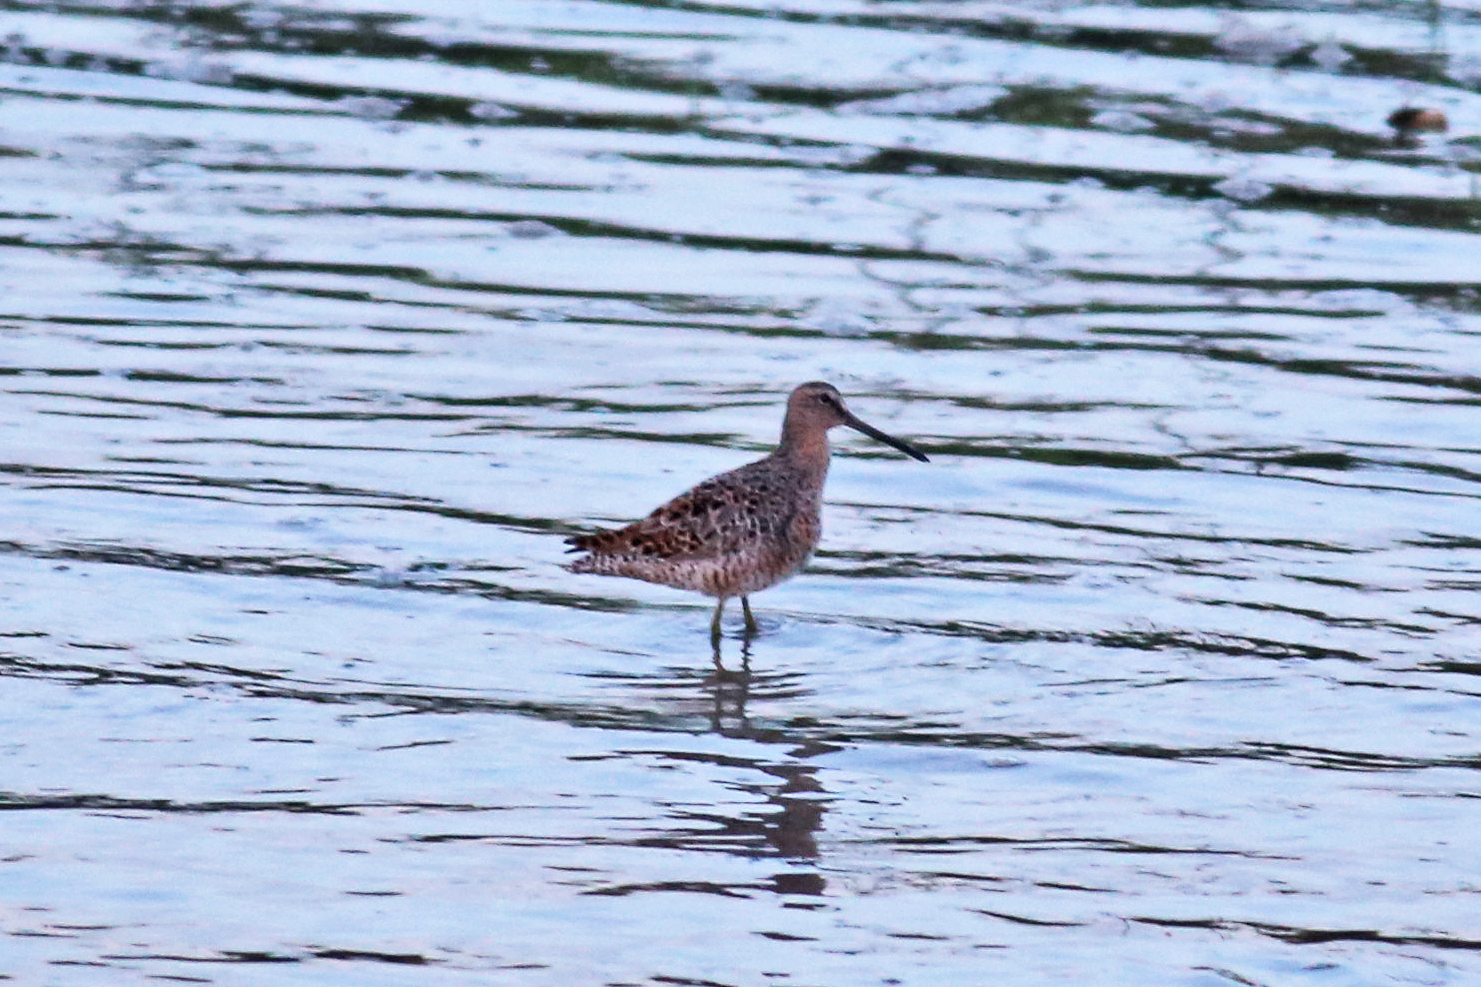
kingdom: Animalia
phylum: Chordata
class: Aves
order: Charadriiformes
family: Scolopacidae
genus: Limnodromus
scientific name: Limnodromus griseus
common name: Short-billed dowitcher
